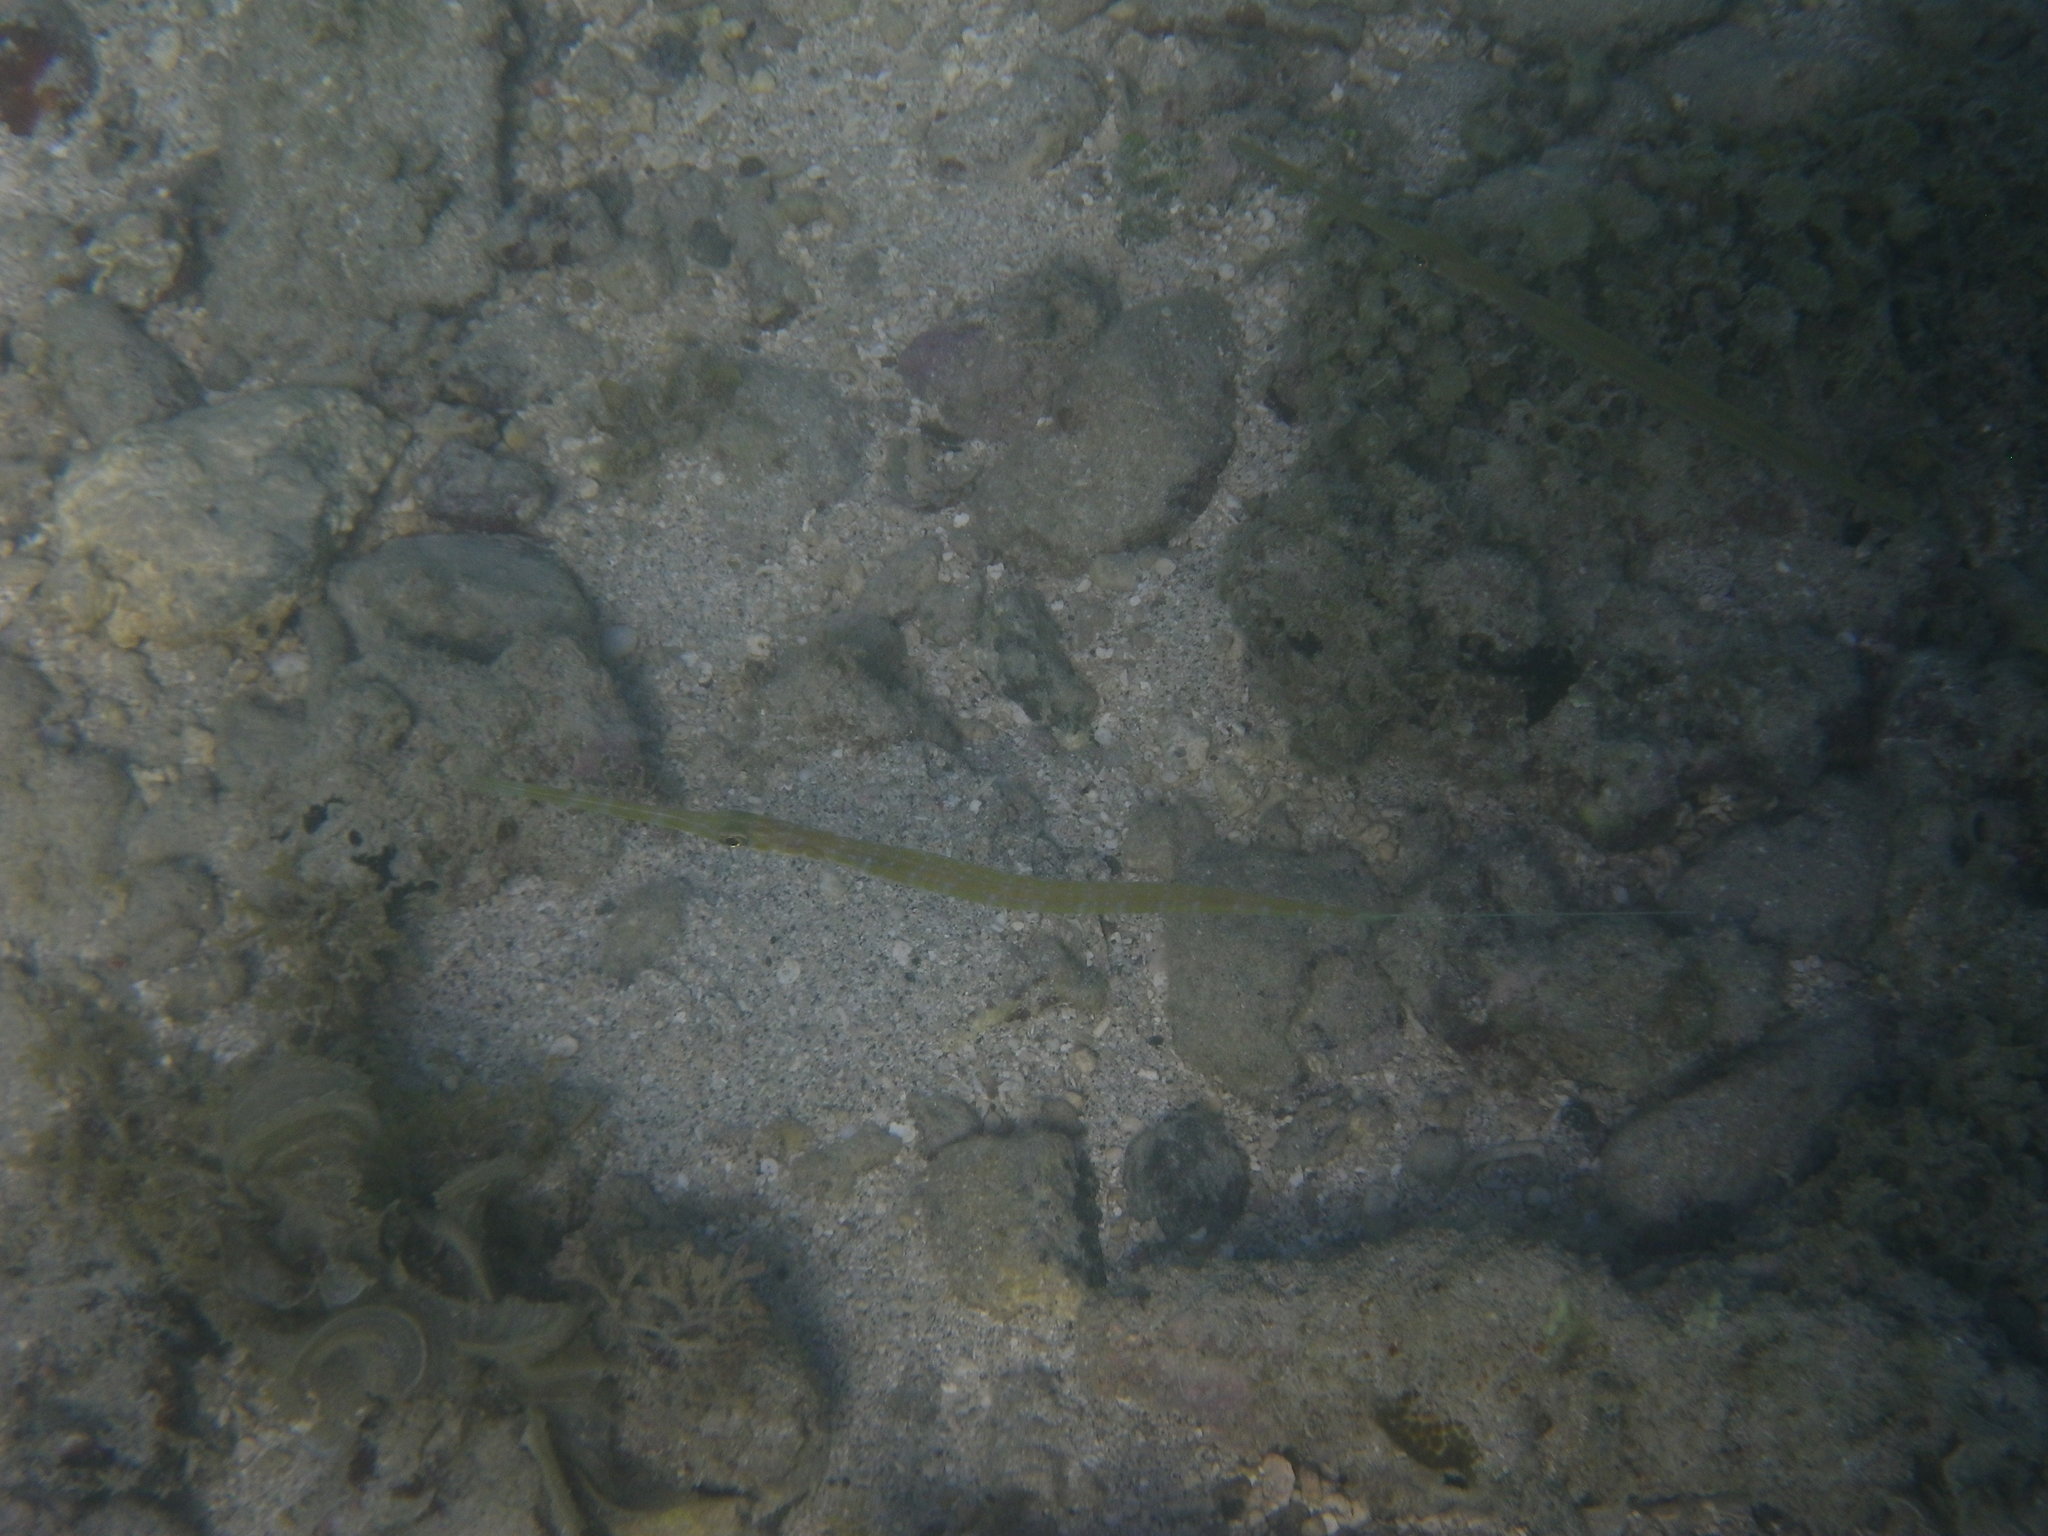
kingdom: Animalia
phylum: Chordata
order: Syngnathiformes
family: Fistulariidae
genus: Fistularia
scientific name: Fistularia commersonii
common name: Bluespotted cornetfish
